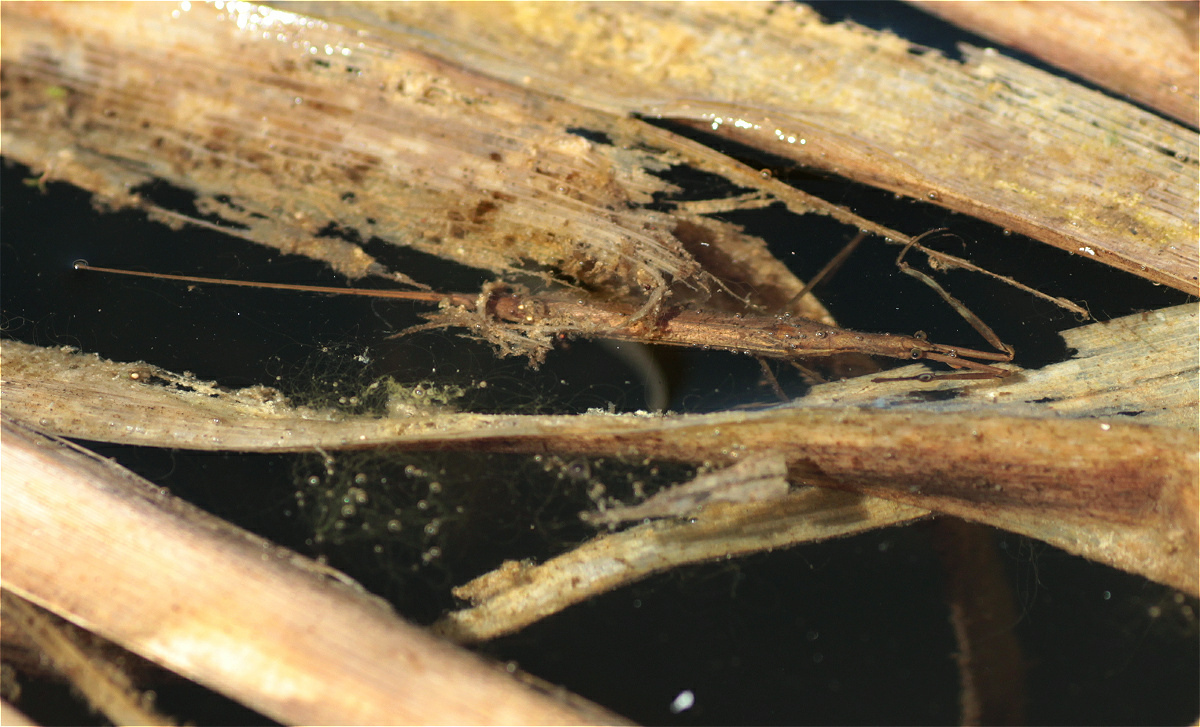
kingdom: Animalia
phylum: Arthropoda
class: Insecta
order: Hemiptera
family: Nepidae
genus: Ranatra
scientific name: Ranatra linearis
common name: Water stick insect
